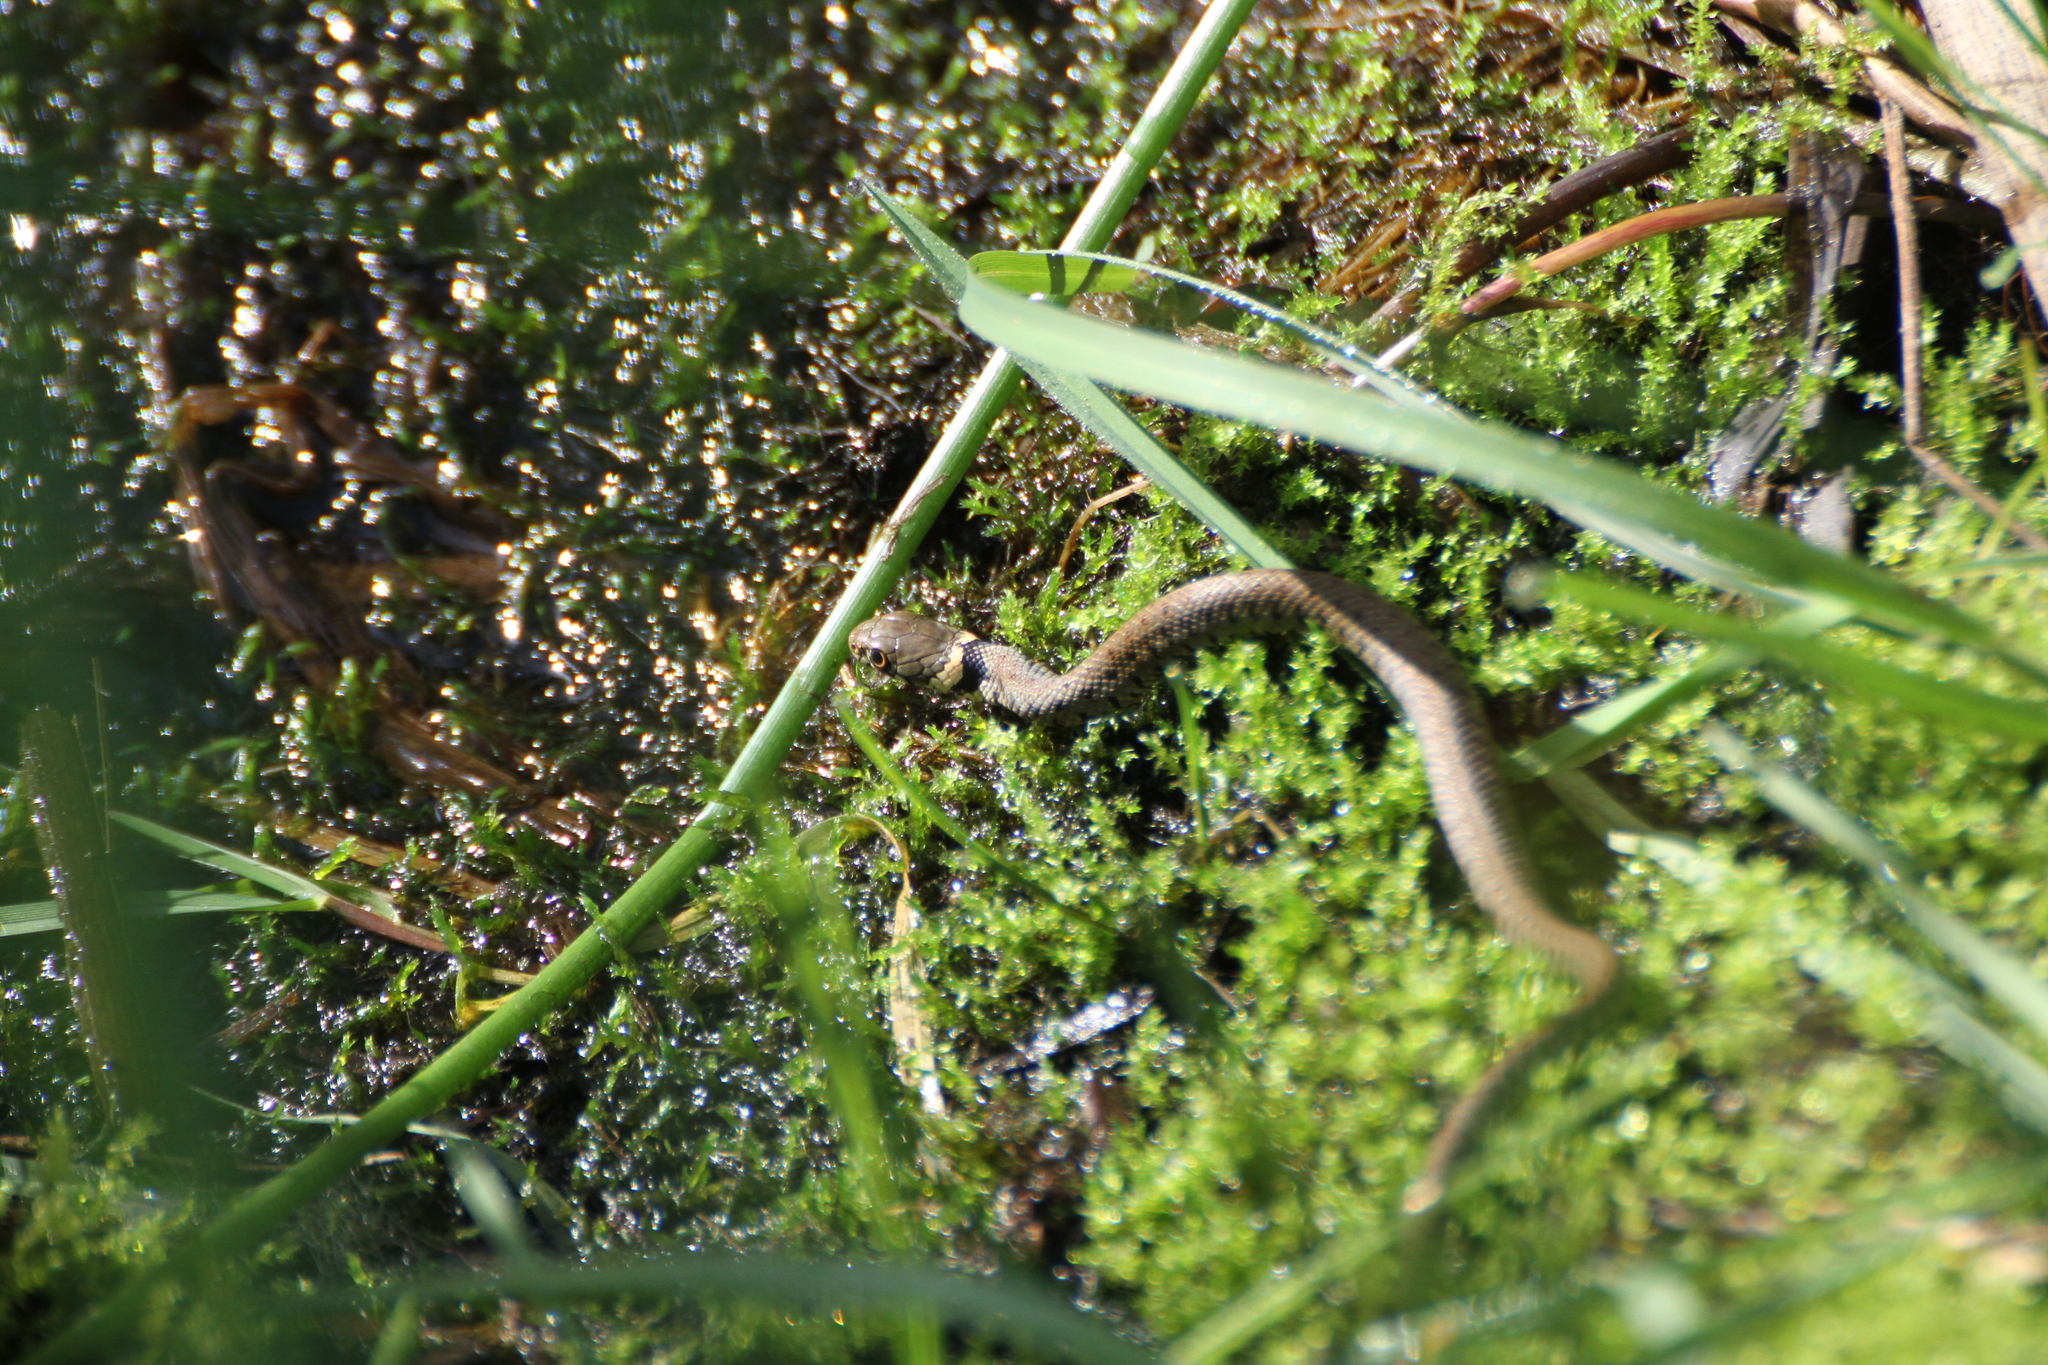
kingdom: Animalia
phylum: Chordata
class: Squamata
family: Colubridae
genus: Natrix
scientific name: Natrix helvetica
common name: Banded grass snake
